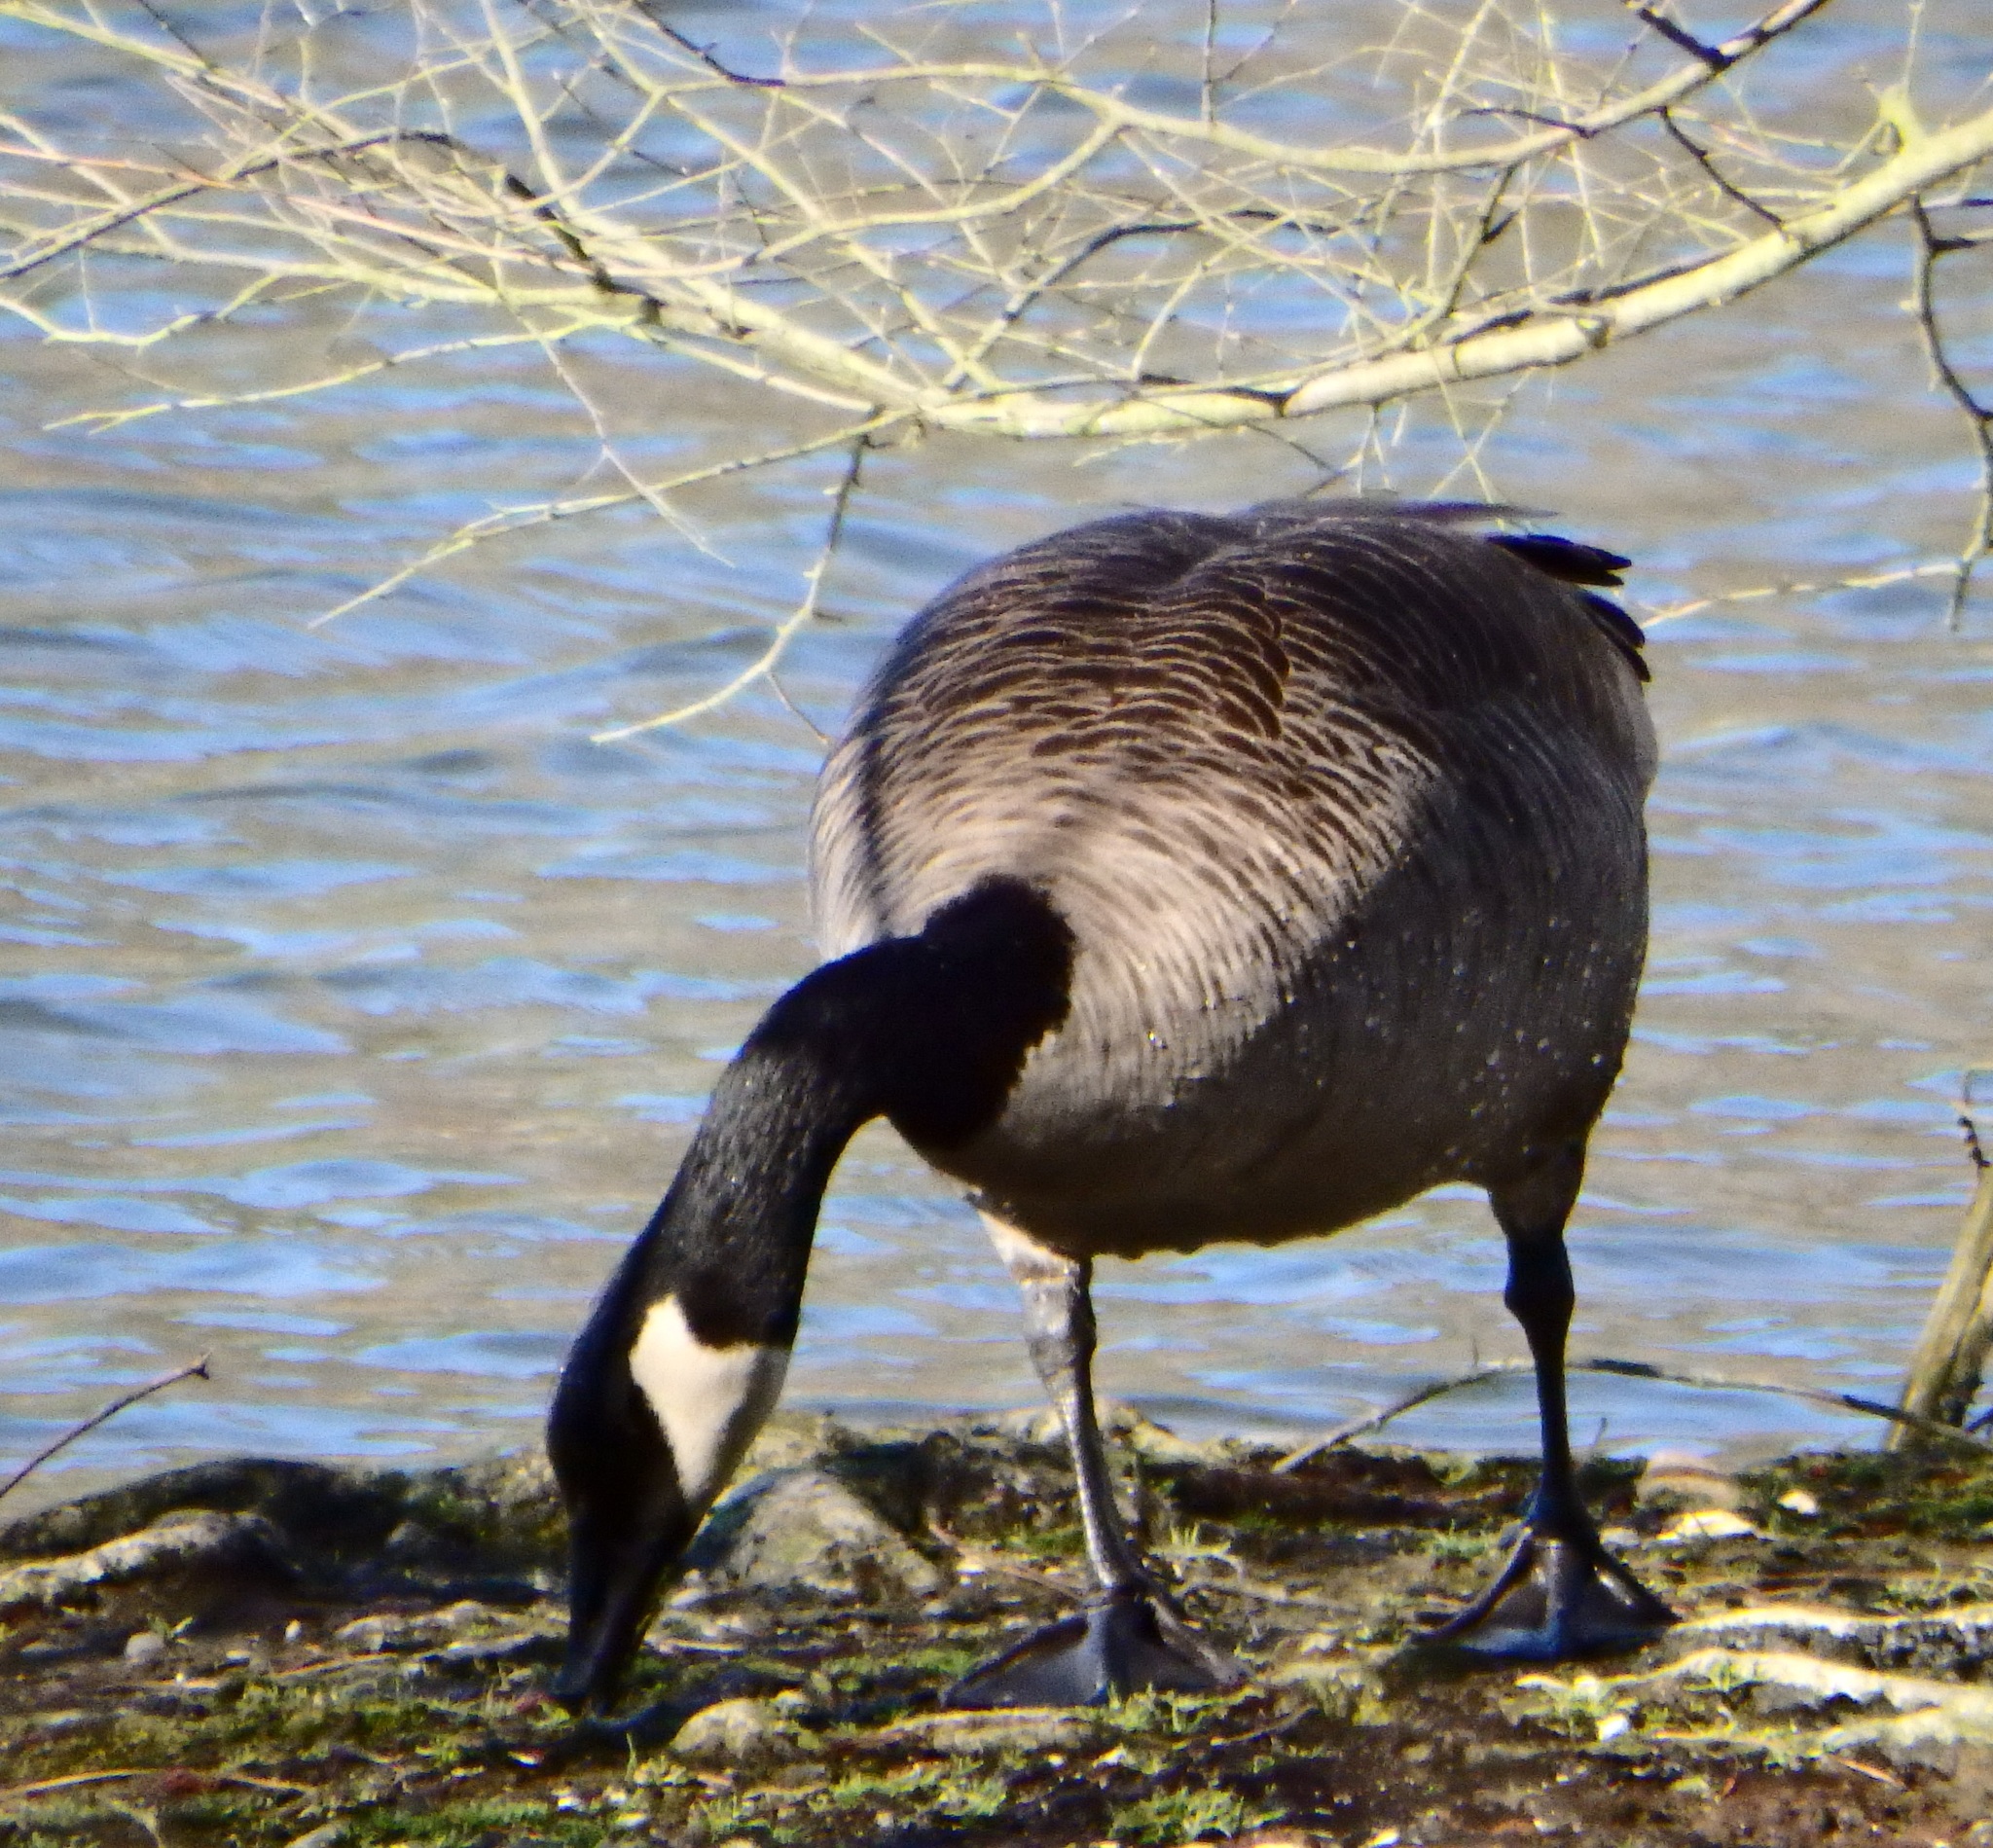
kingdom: Animalia
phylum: Chordata
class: Aves
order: Anseriformes
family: Anatidae
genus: Branta
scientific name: Branta canadensis
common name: Canada goose
